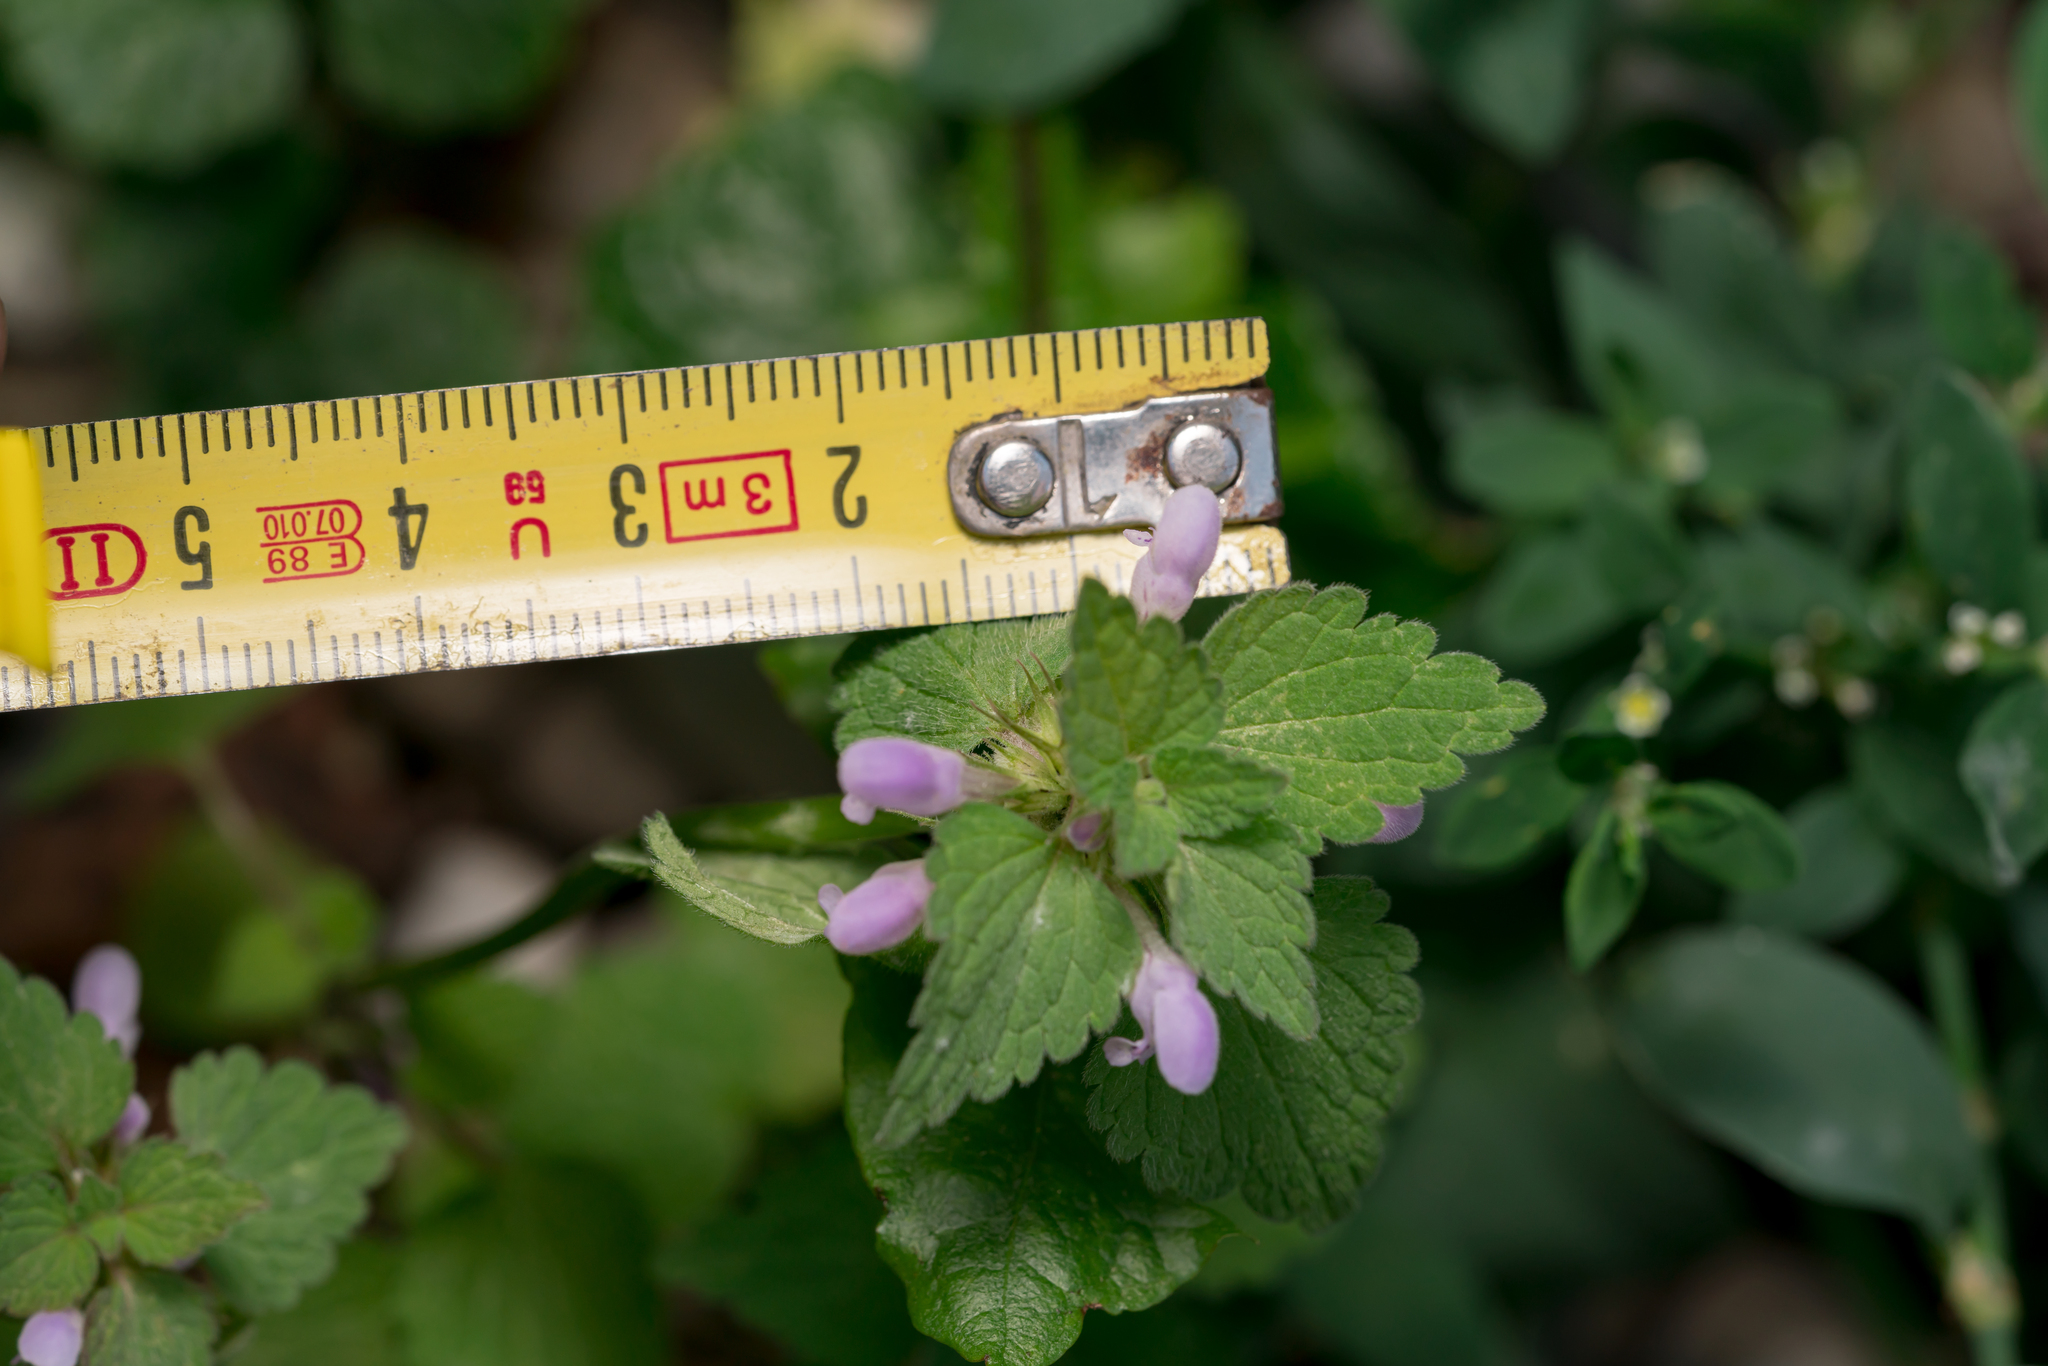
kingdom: Plantae
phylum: Tracheophyta
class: Magnoliopsida
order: Lamiales
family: Lamiaceae
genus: Lamium
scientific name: Lamium purpureum
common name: Red dead-nettle
